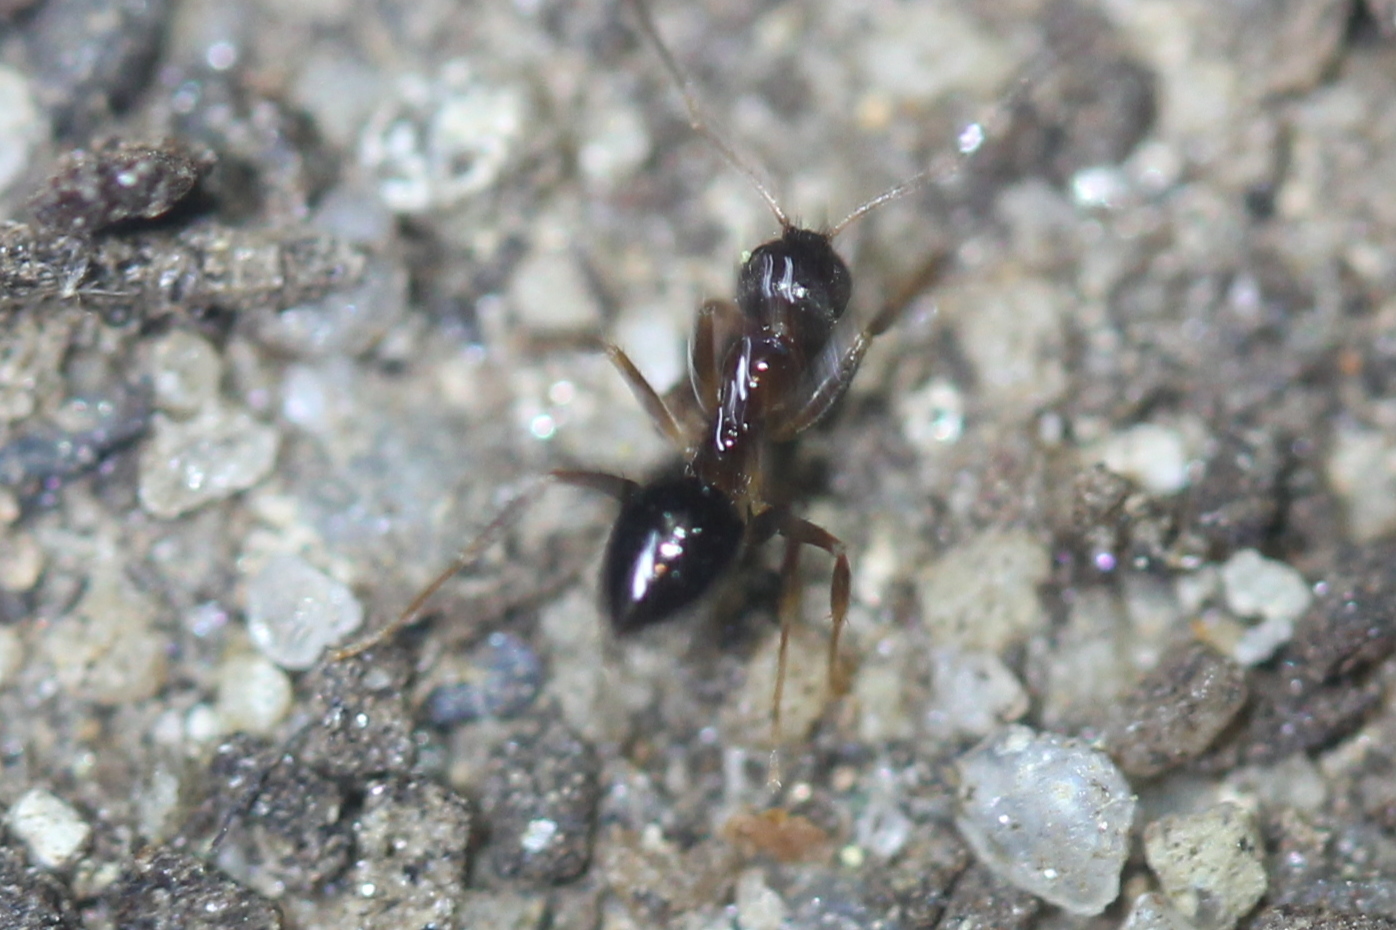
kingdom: Animalia
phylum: Arthropoda
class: Insecta
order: Hymenoptera
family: Formicidae
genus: Nylanderia
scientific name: Nylanderia faisonensis
